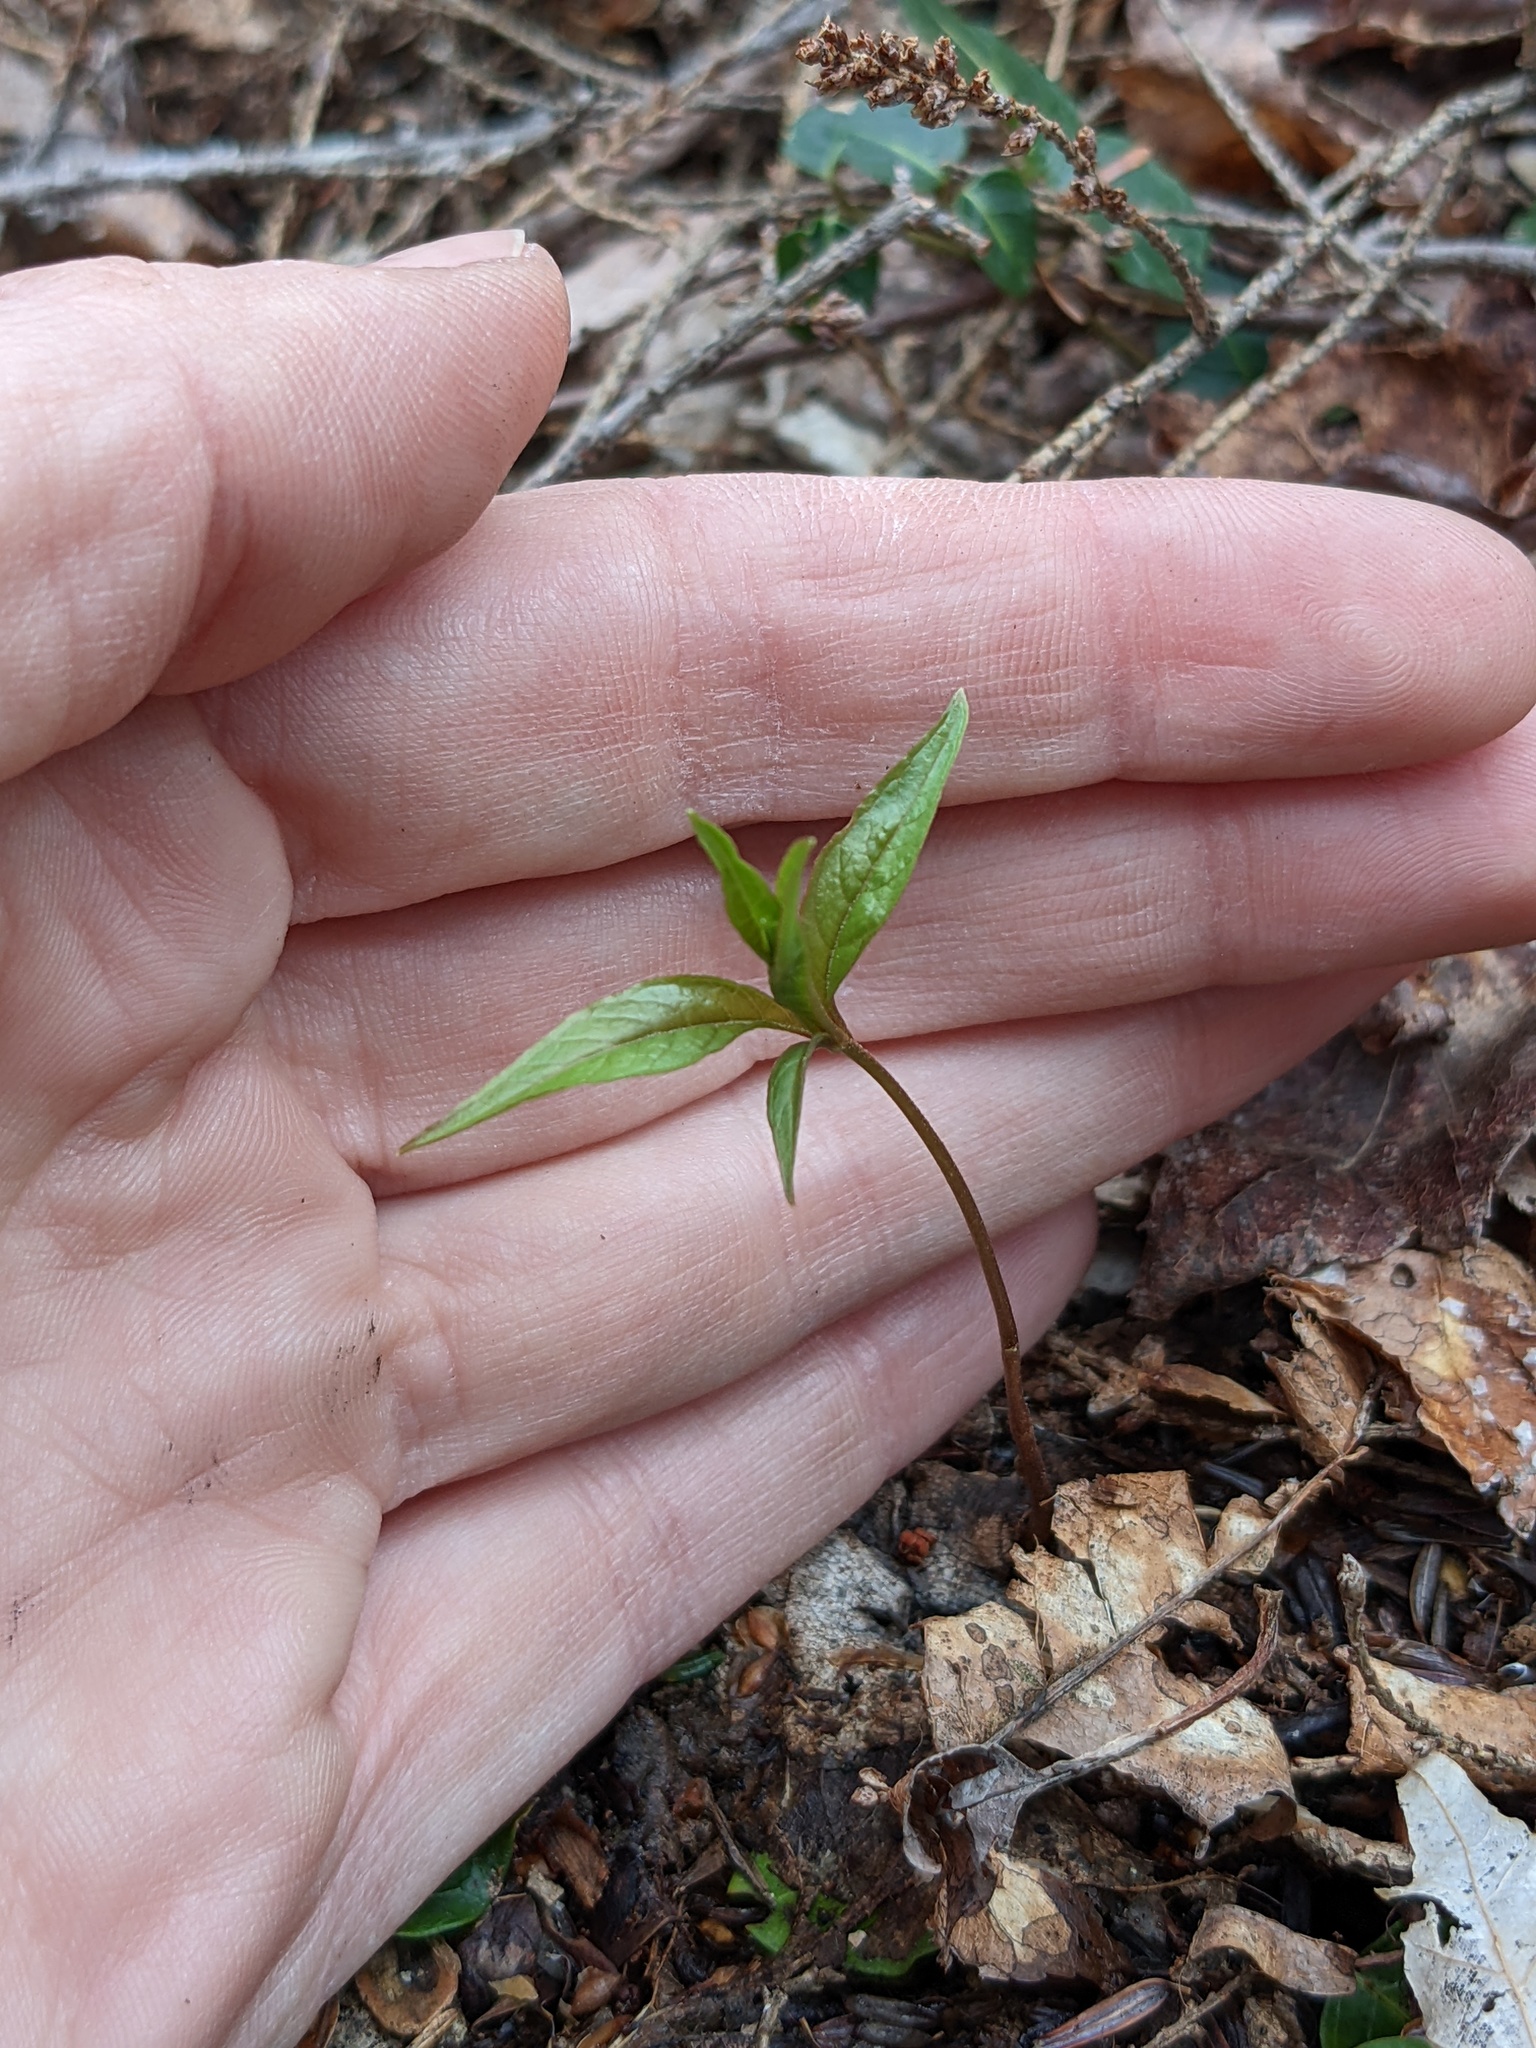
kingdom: Plantae
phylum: Tracheophyta
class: Magnoliopsida
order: Ericales
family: Primulaceae
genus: Lysimachia
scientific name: Lysimachia borealis
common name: American starflower
